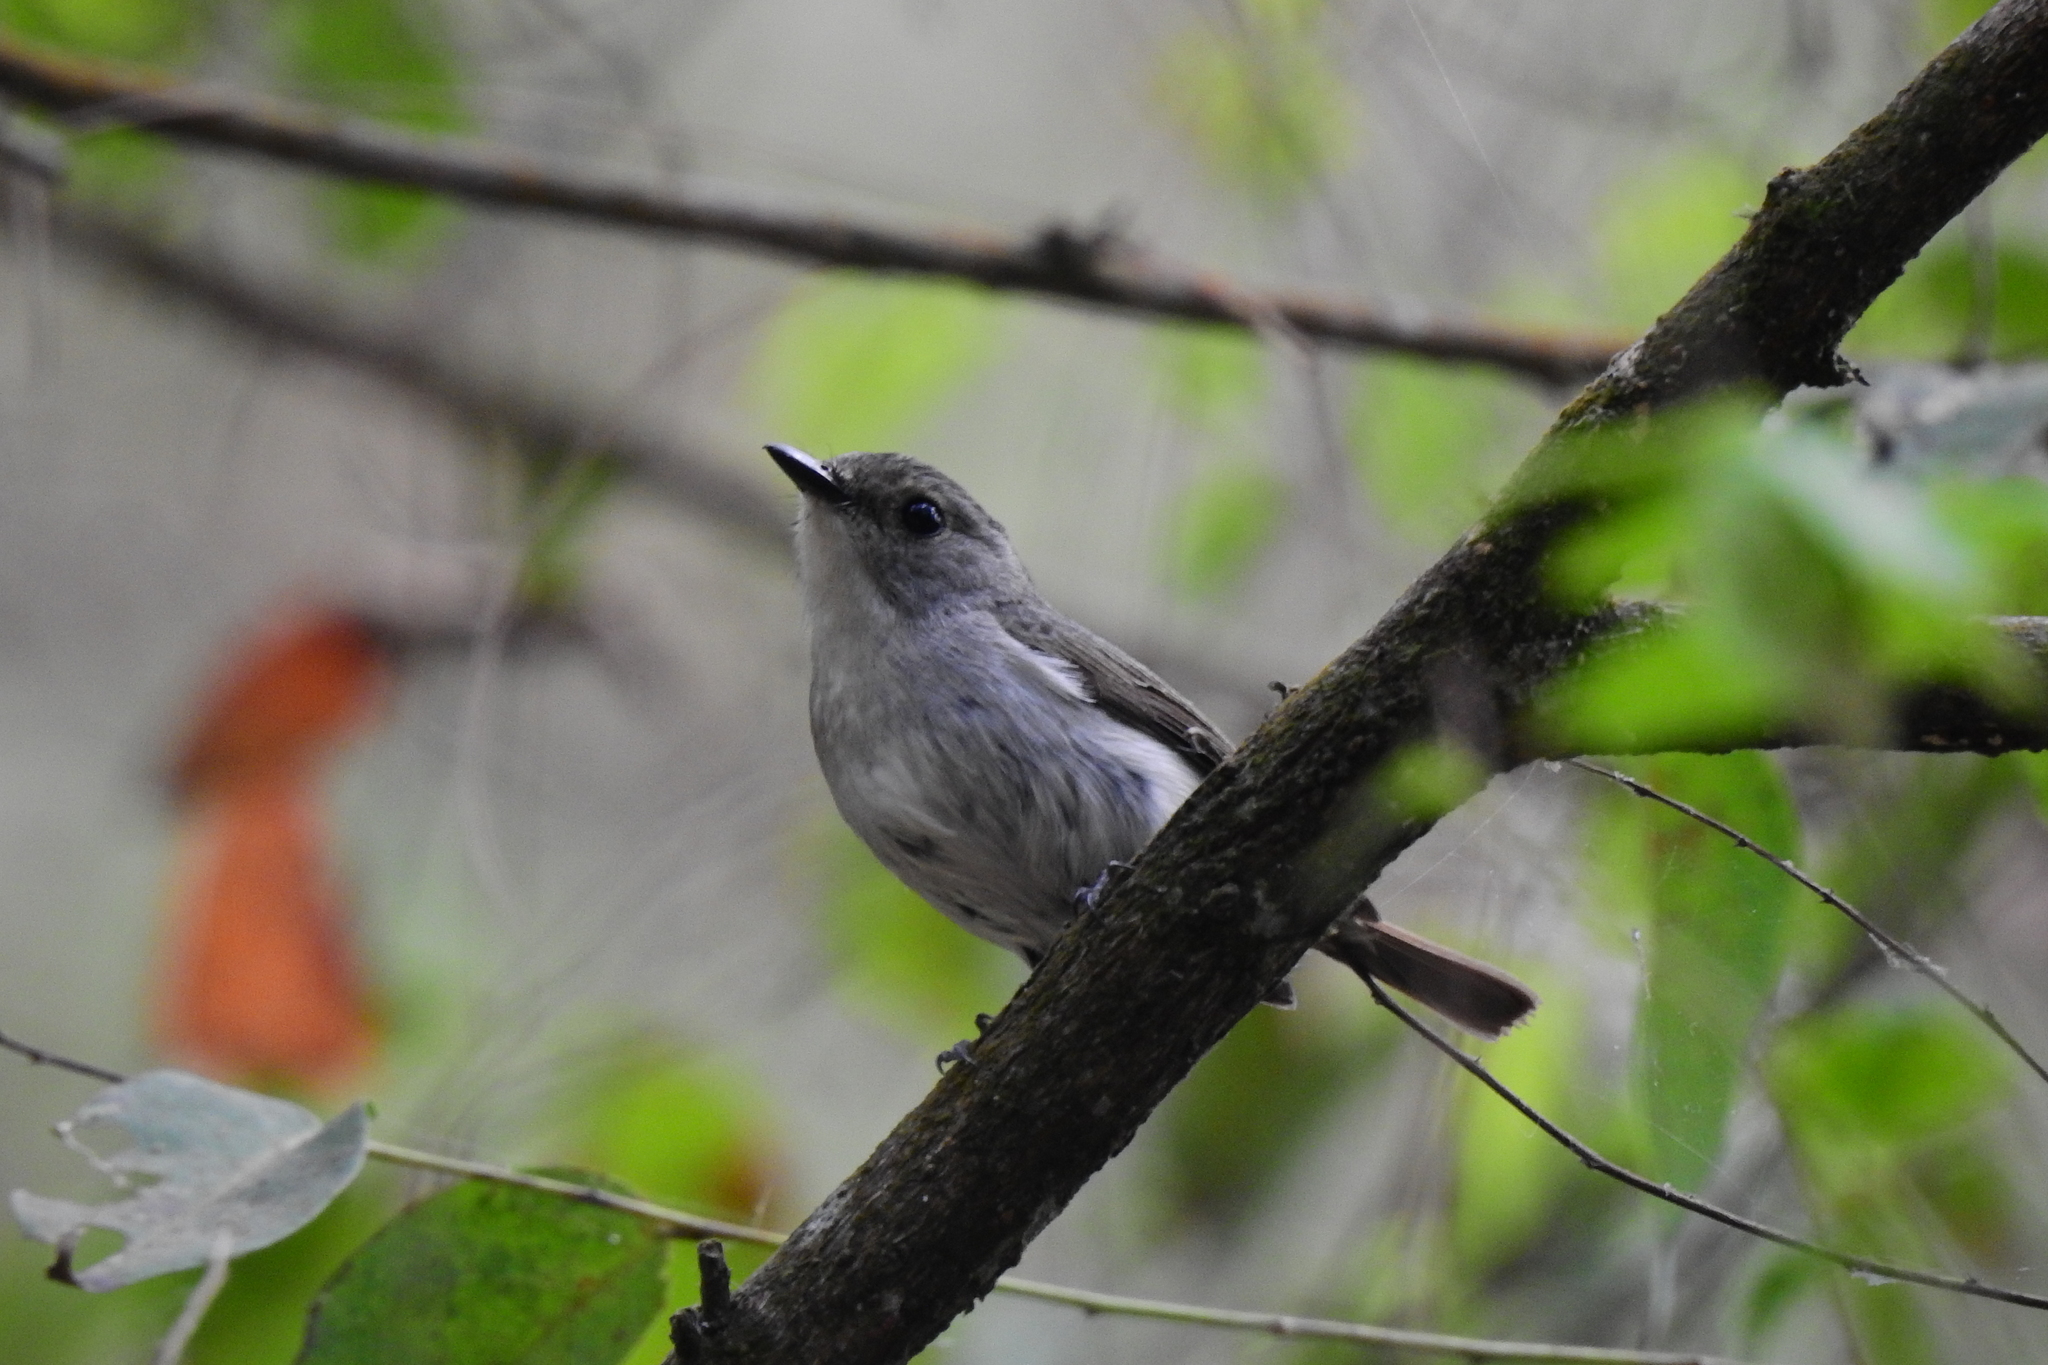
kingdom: Animalia
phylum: Chordata
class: Aves
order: Passeriformes
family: Muscicapidae
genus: Ficedula
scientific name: Ficedula westermanni
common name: Little pied flycatcher
